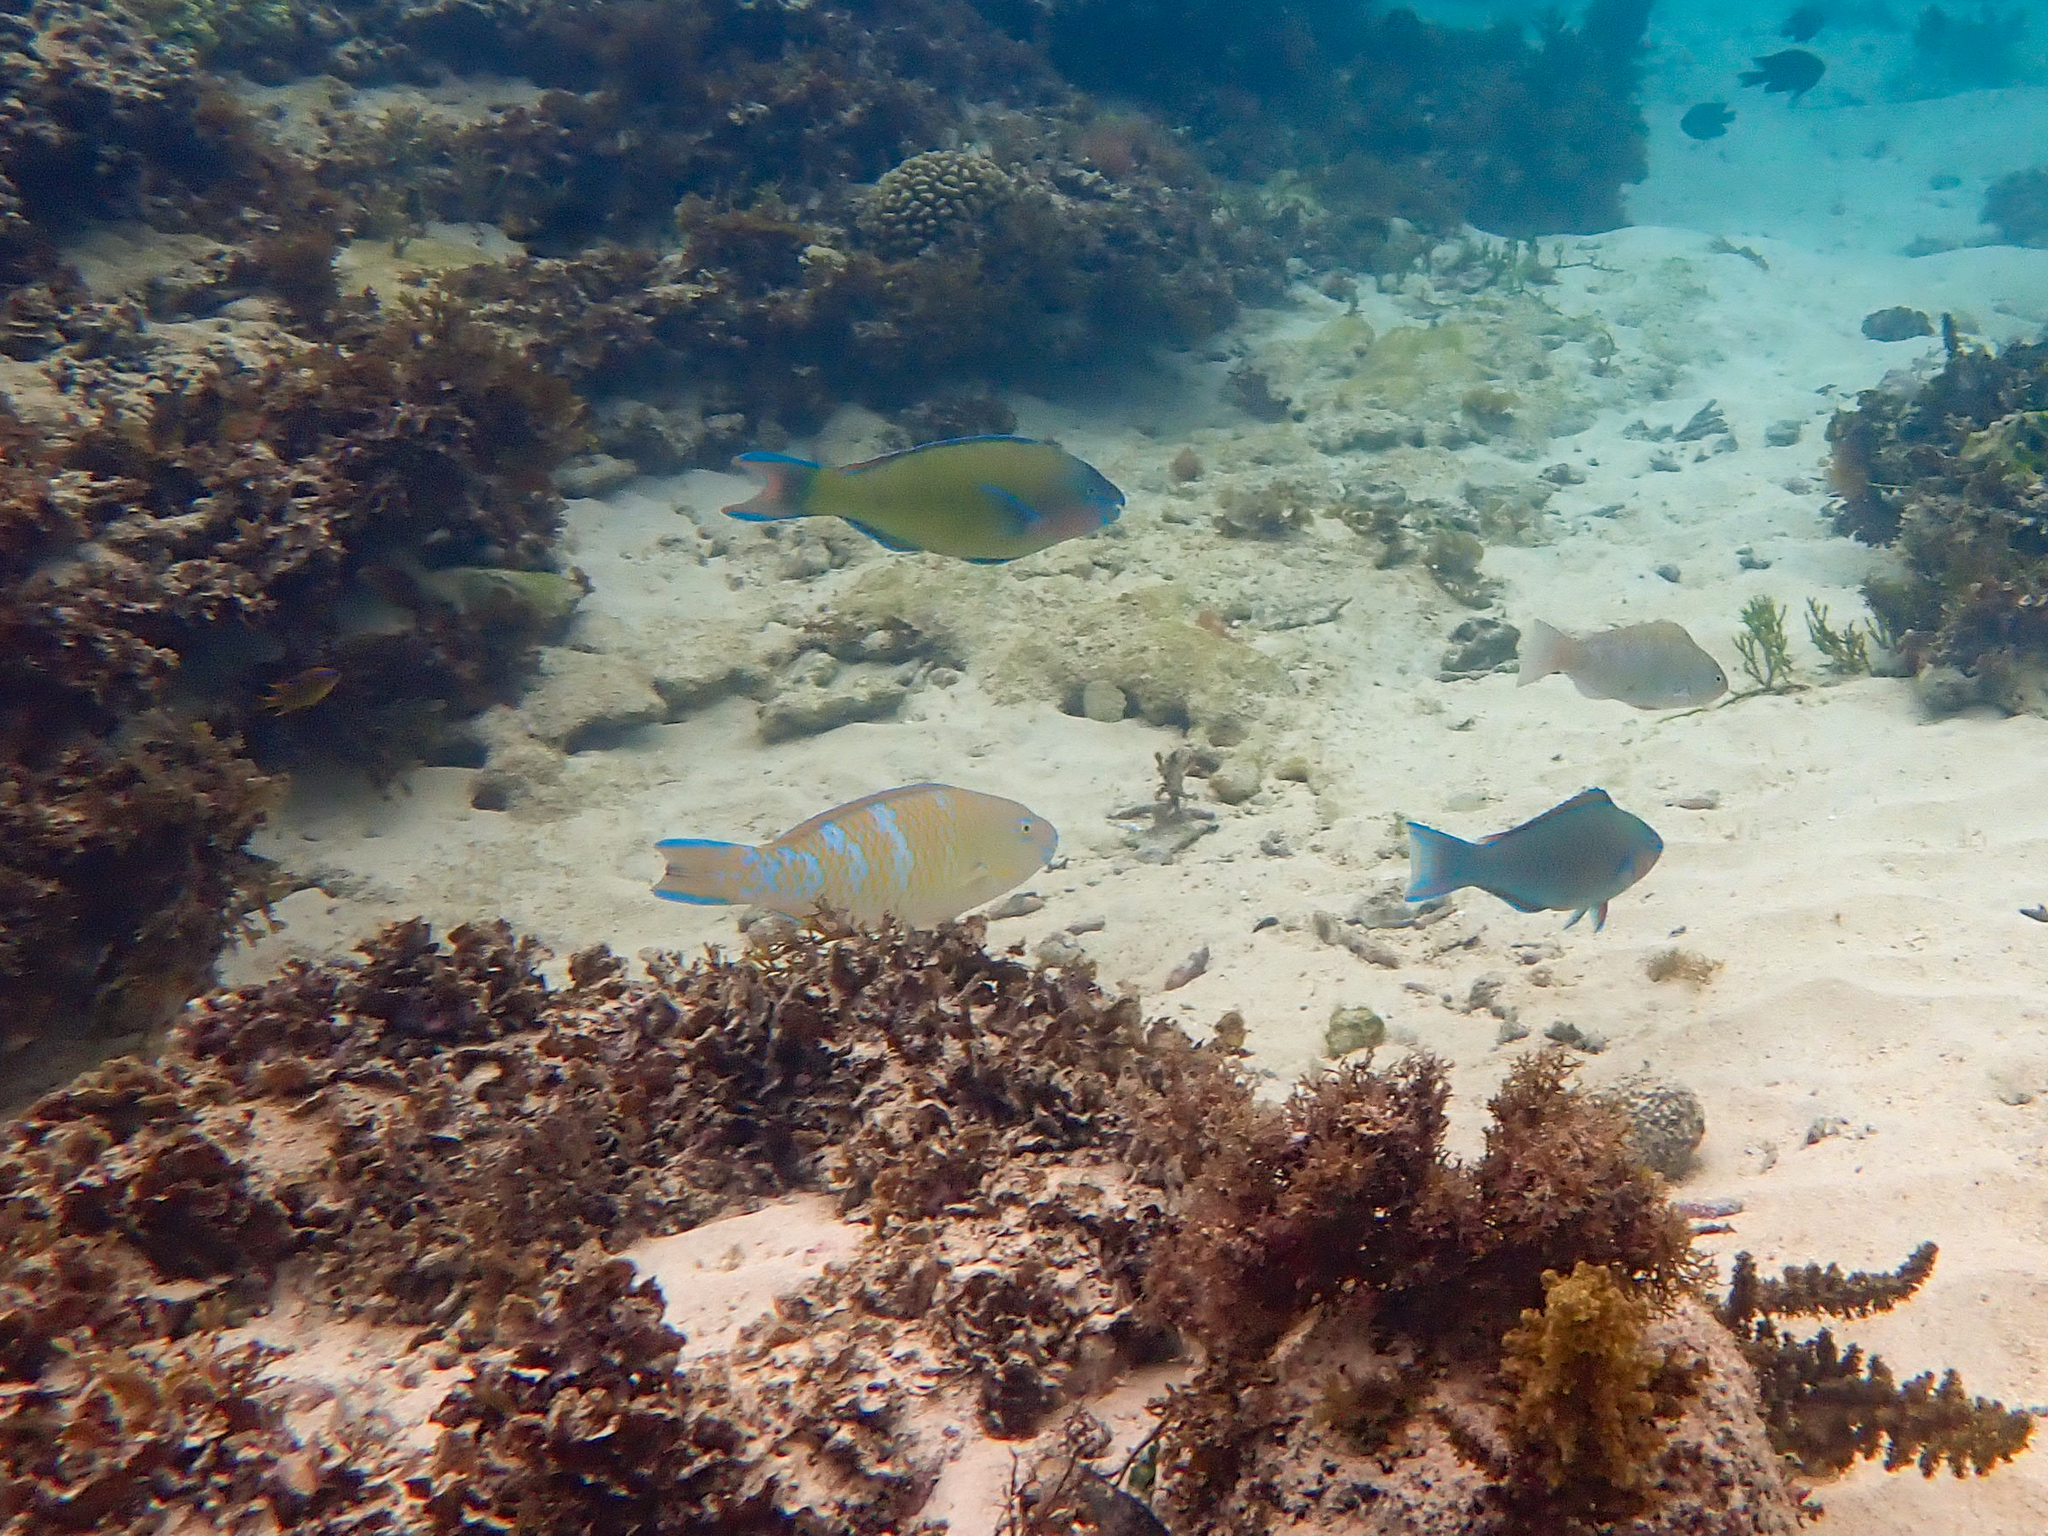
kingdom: Animalia
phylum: Chordata
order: Perciformes
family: Scaridae
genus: Scarus
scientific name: Scarus ghobban
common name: Blue-barred parrotfish
